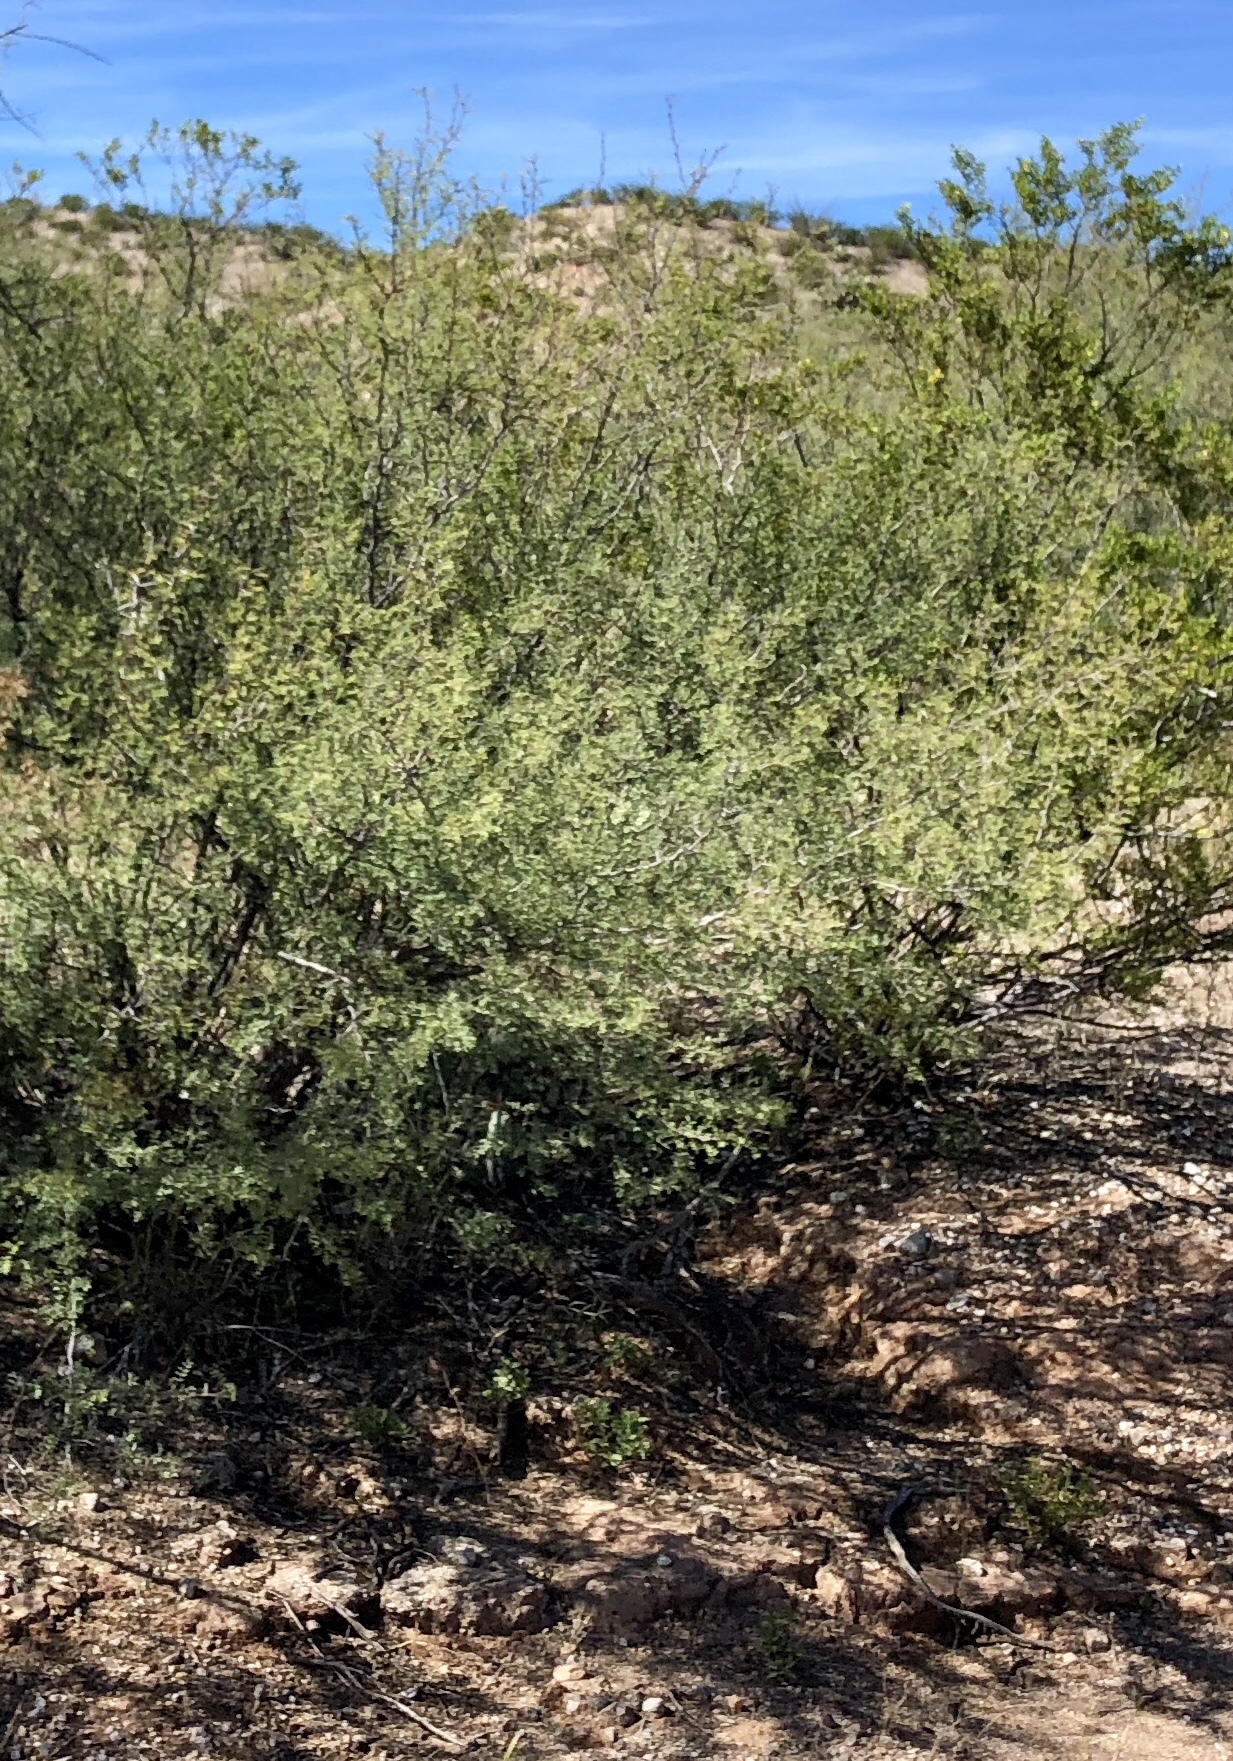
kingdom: Plantae
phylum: Tracheophyta
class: Magnoliopsida
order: Fabales
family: Fabaceae
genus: Vachellia
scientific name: Vachellia constricta
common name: Mescat acacia
